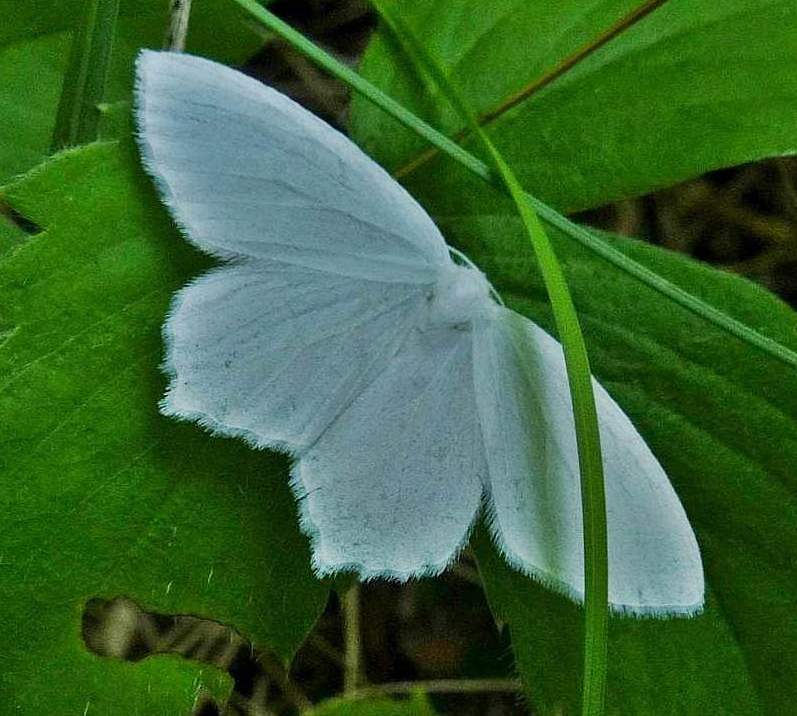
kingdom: Animalia
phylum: Arthropoda
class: Insecta
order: Lepidoptera
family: Geometridae
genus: Eugonobapta
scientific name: Eugonobapta nivosaria
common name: Snowy geometer
